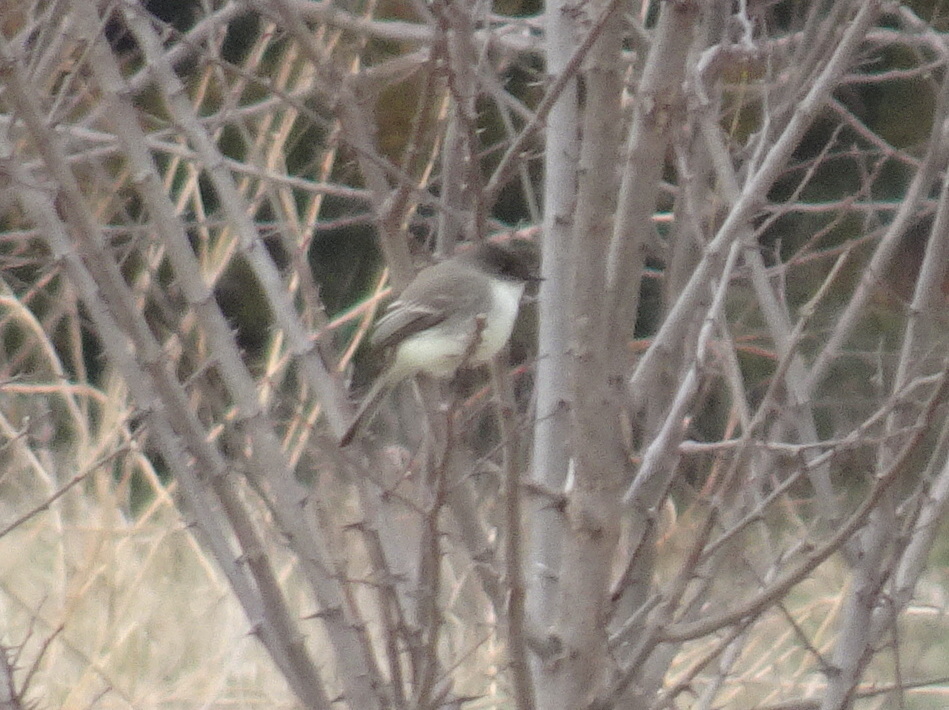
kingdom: Animalia
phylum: Chordata
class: Aves
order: Passeriformes
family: Tyrannidae
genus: Sayornis
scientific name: Sayornis phoebe
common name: Eastern phoebe
